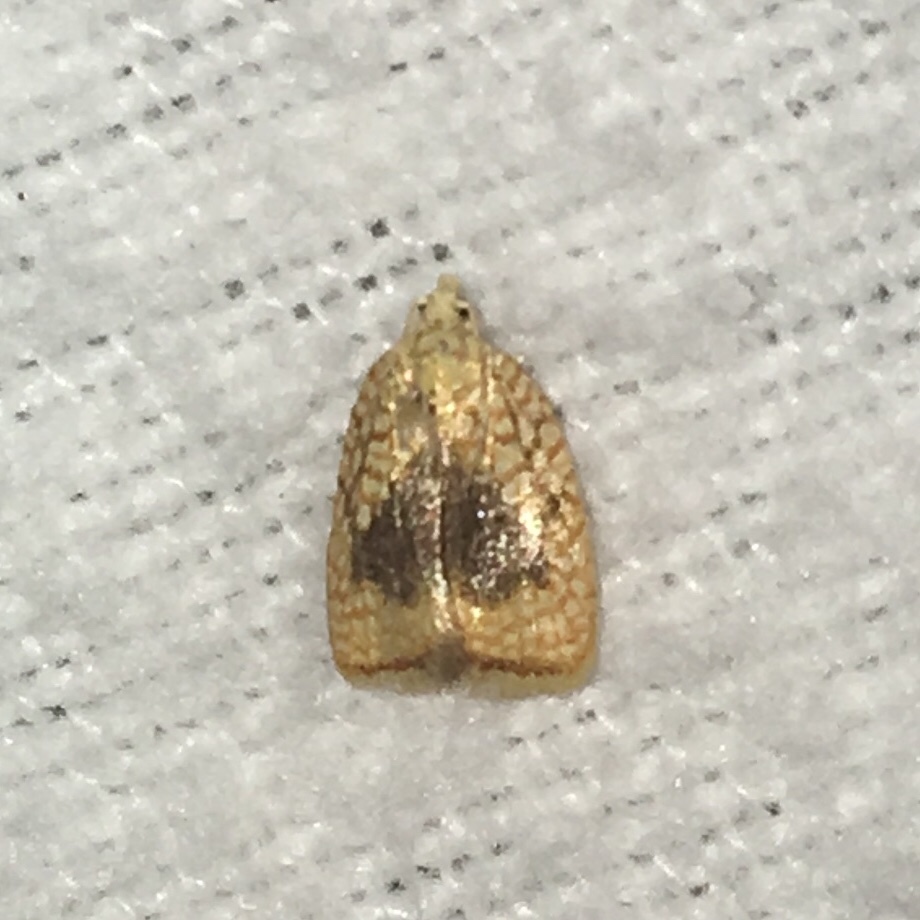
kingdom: Animalia
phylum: Arthropoda
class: Insecta
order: Lepidoptera
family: Tortricidae
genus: Acleris
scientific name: Acleris forsskaleana
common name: Maple button
